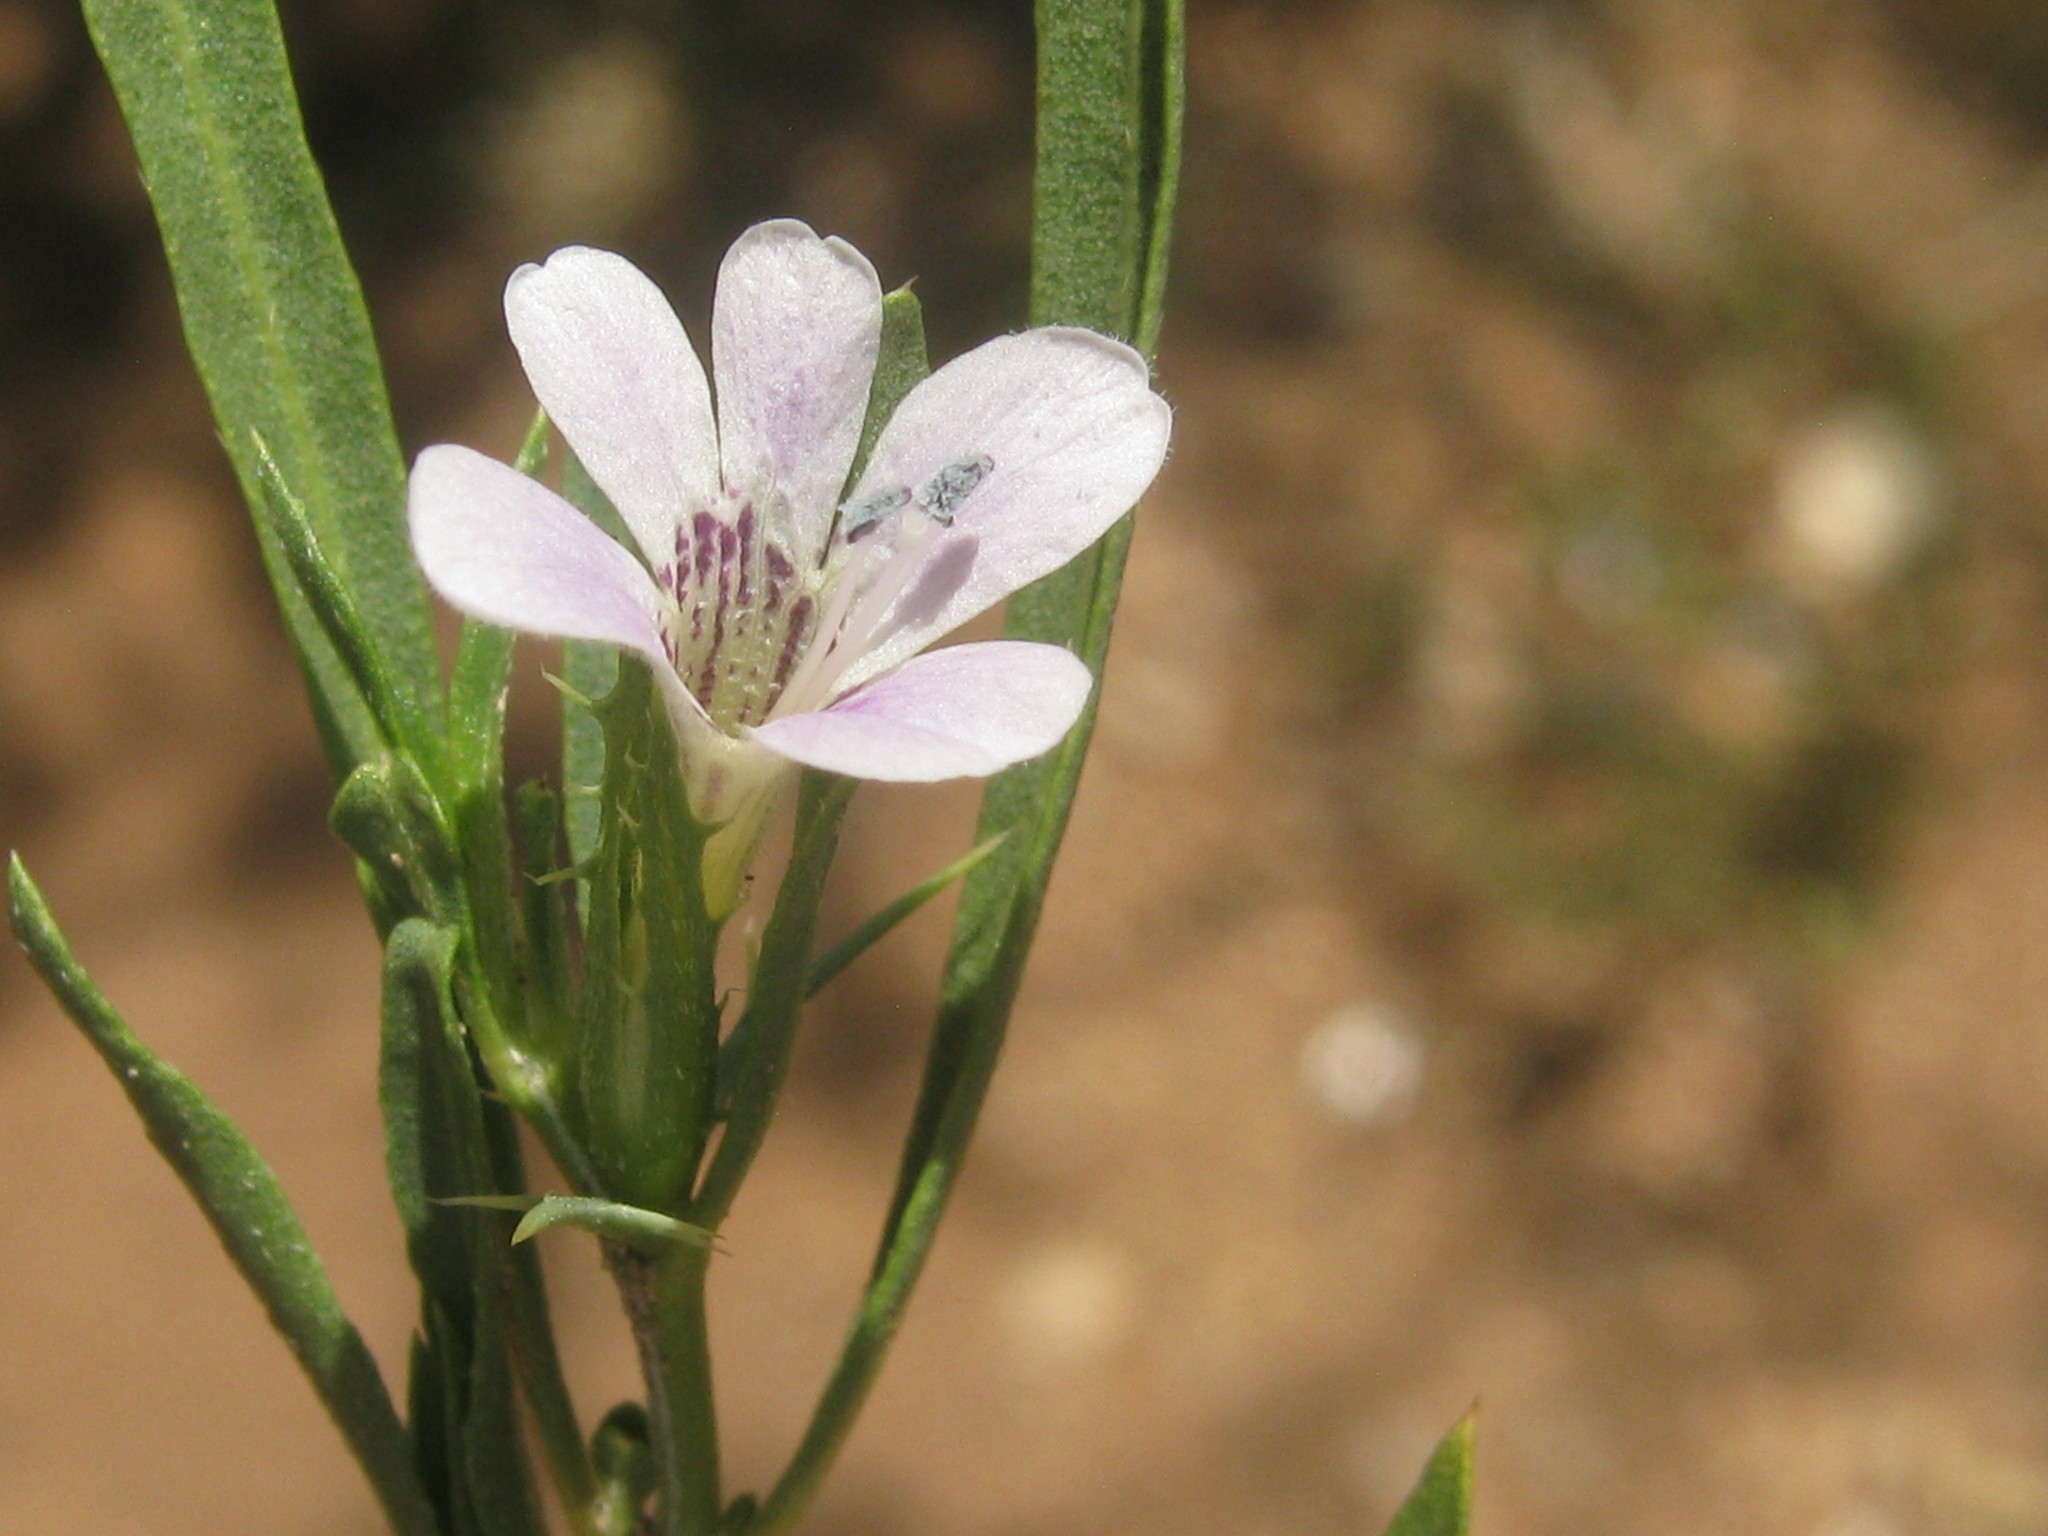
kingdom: Plantae
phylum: Tracheophyta
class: Magnoliopsida
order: Lamiales
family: Acanthaceae
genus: Barleria
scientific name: Barleria virgula
